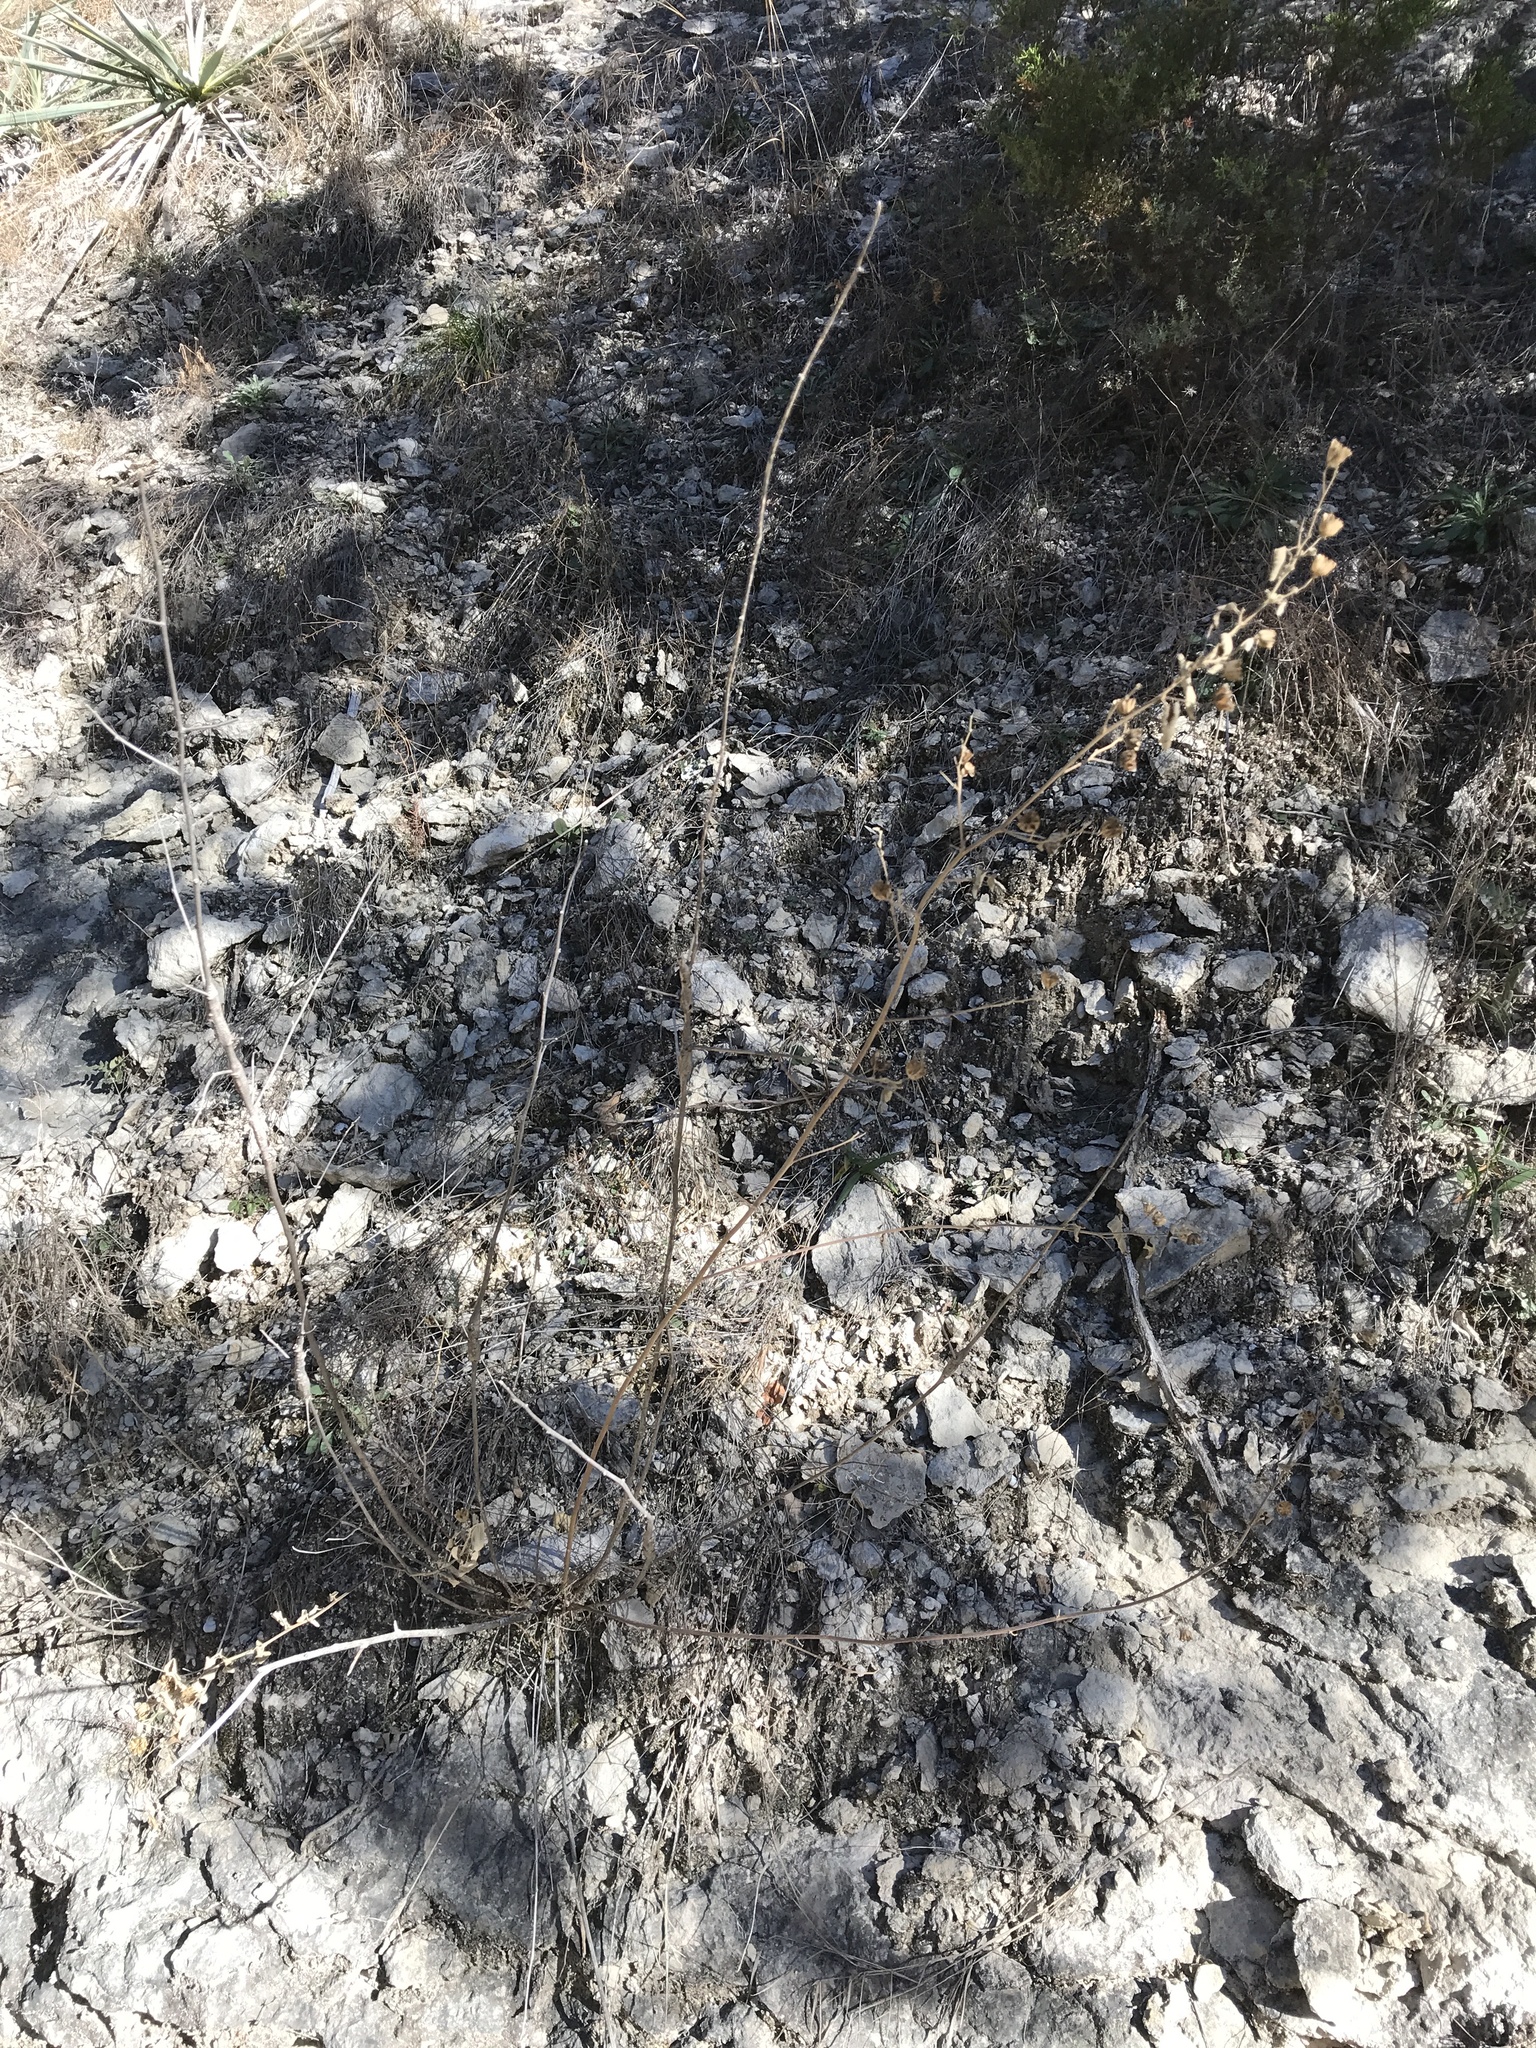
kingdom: Plantae
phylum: Tracheophyta
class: Magnoliopsida
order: Malvales
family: Malvaceae
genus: Abutilon
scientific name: Abutilon fruticosum
